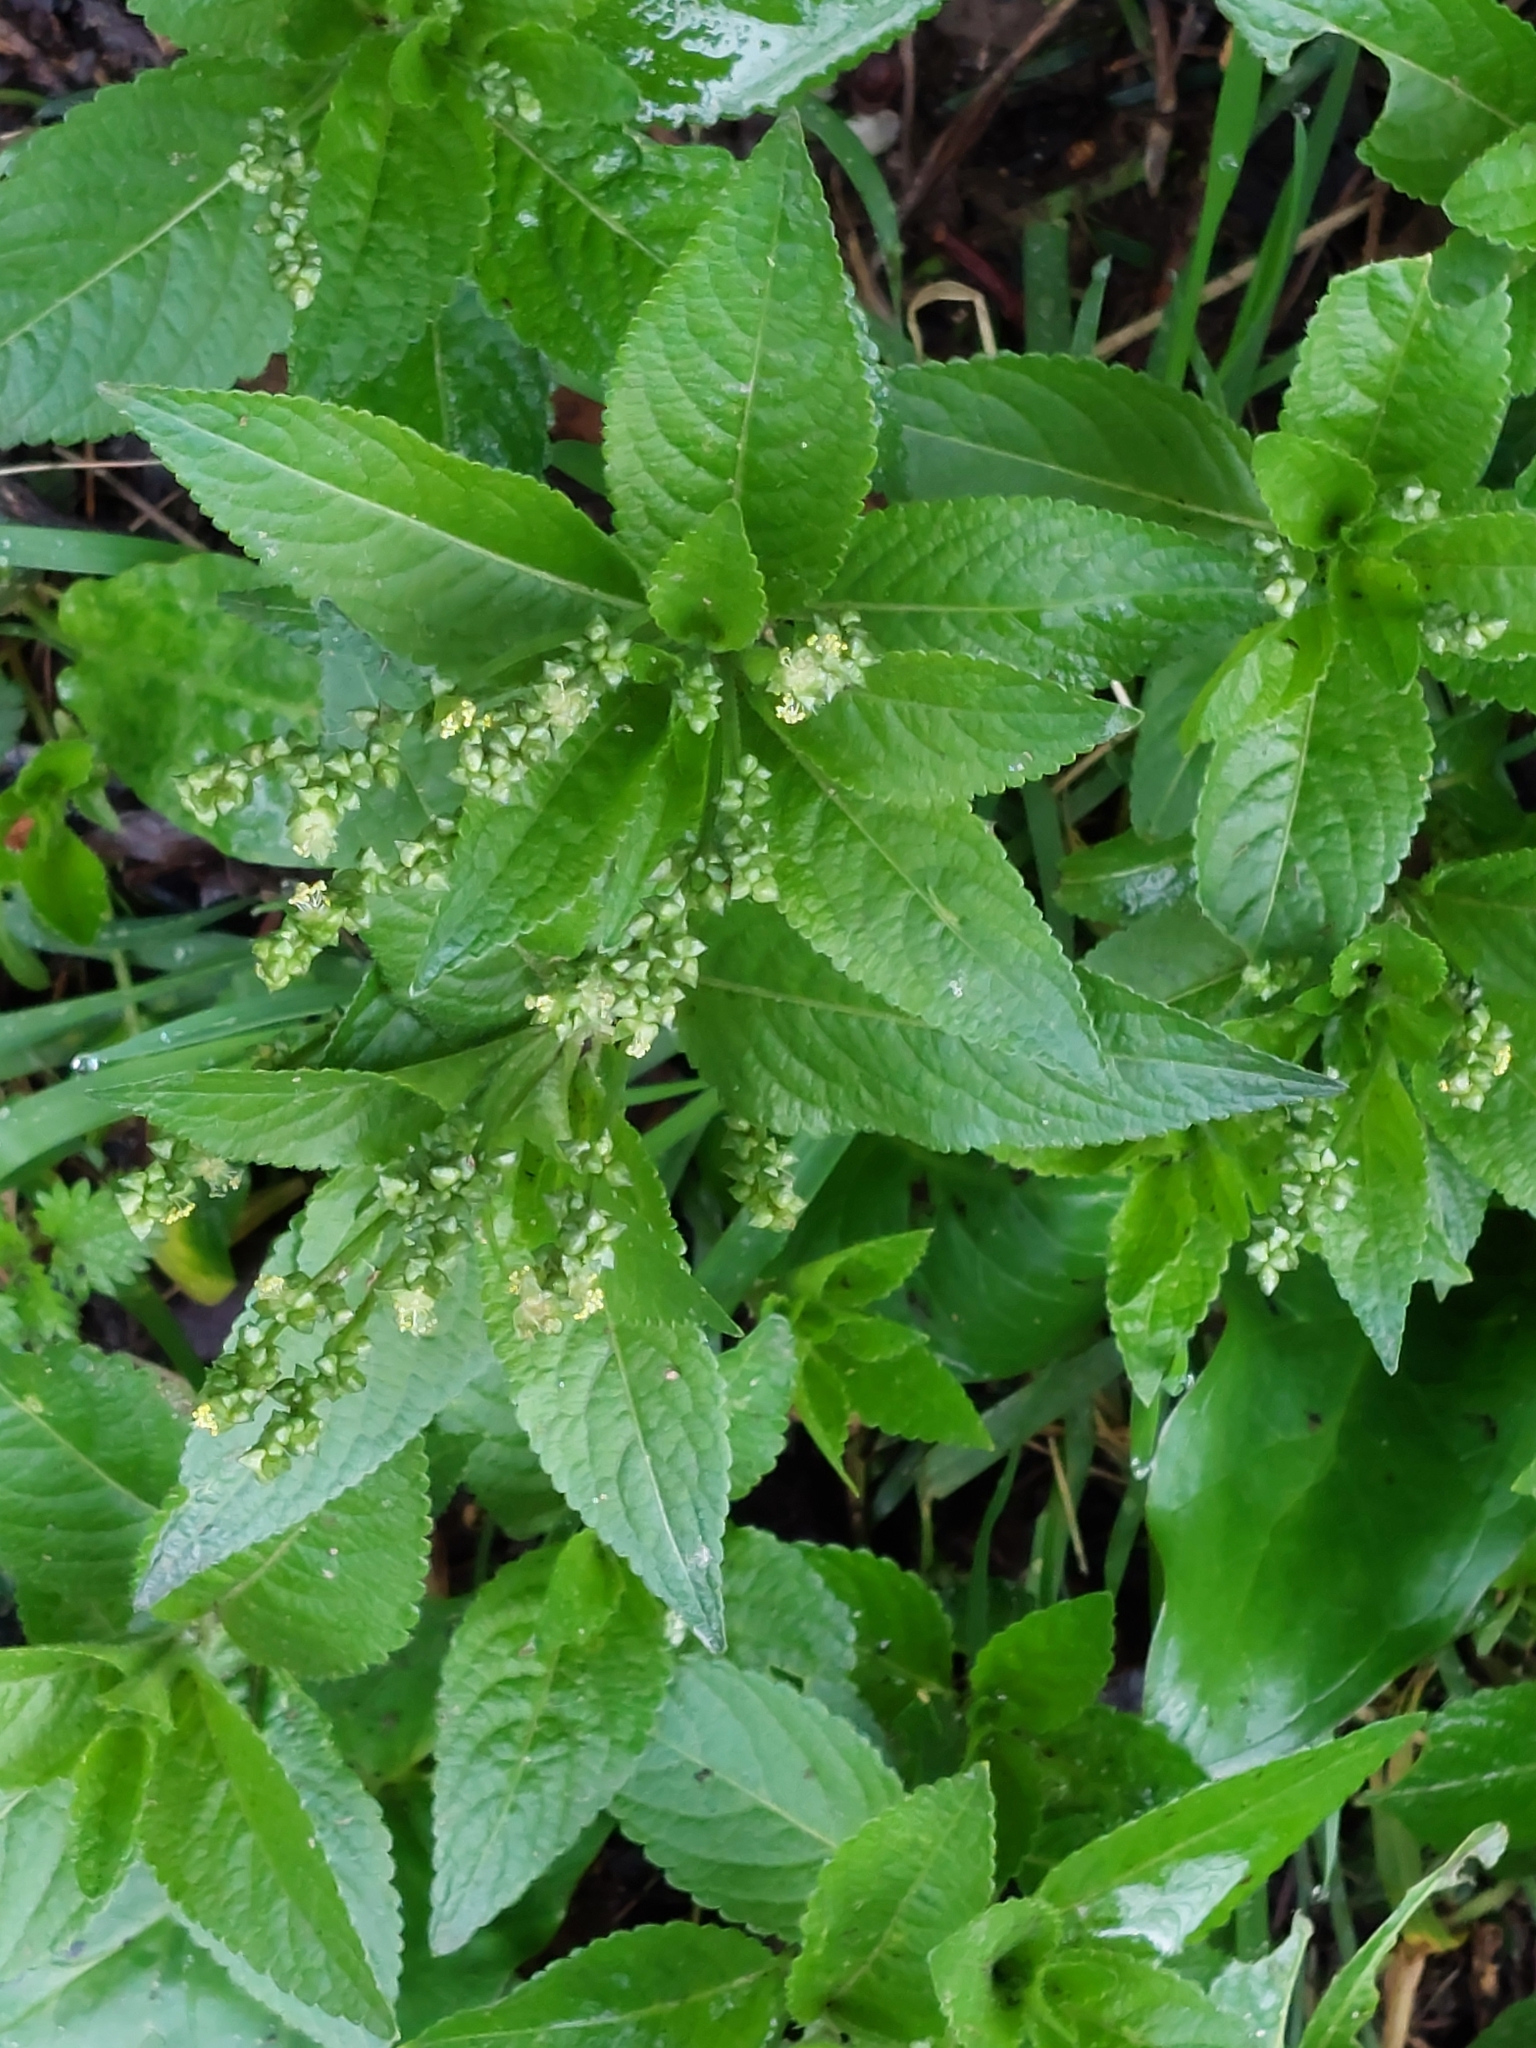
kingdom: Plantae
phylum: Tracheophyta
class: Magnoliopsida
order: Malpighiales
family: Euphorbiaceae
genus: Mercurialis
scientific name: Mercurialis perennis
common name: Dog mercury
